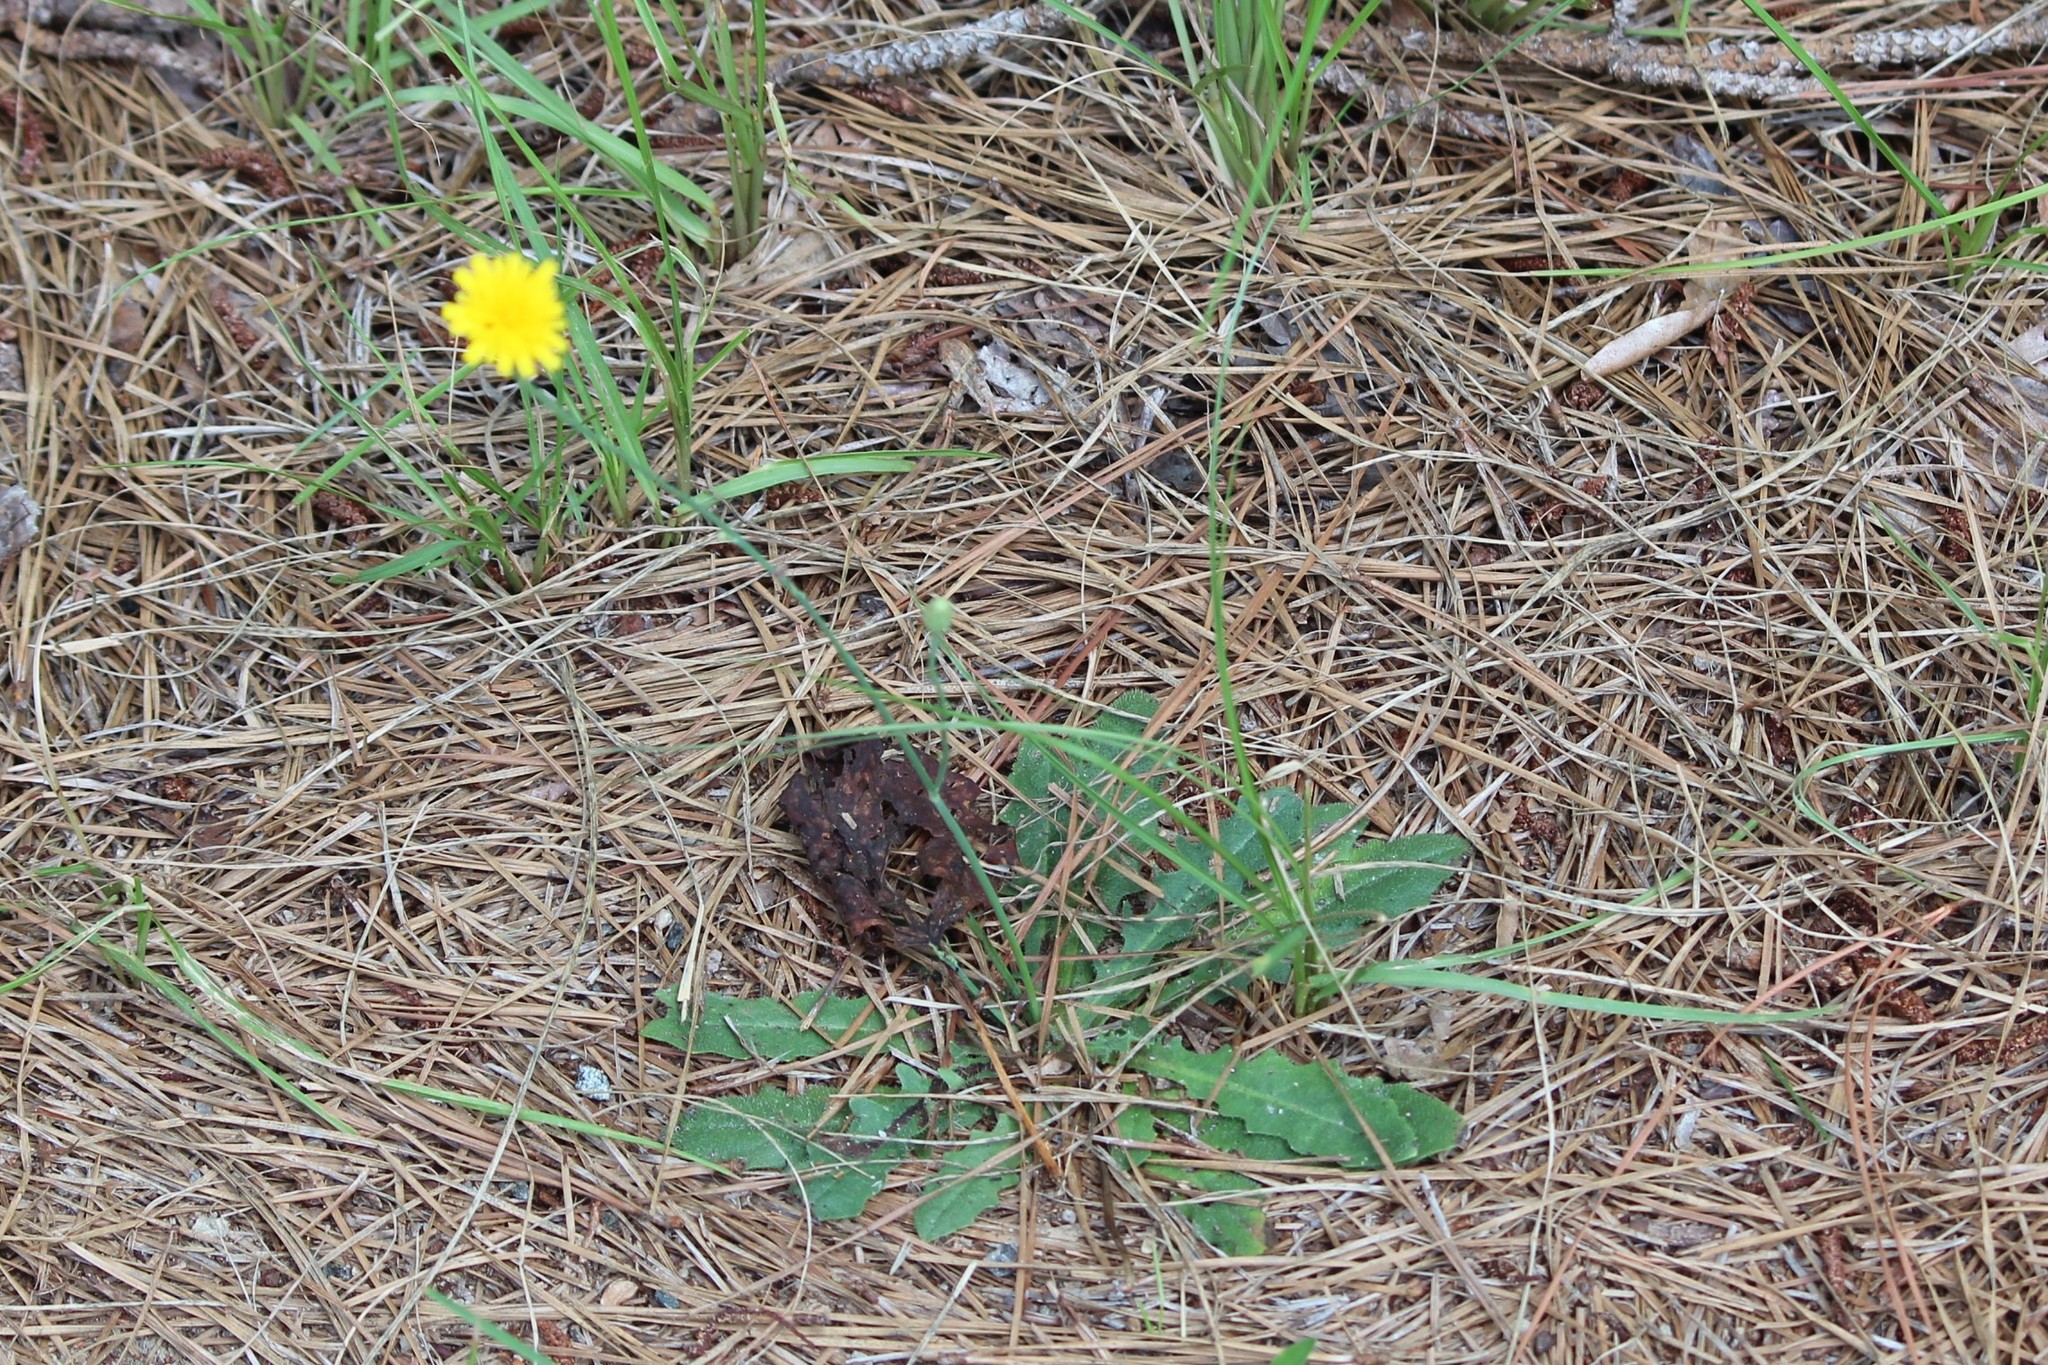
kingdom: Plantae
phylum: Tracheophyta
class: Magnoliopsida
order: Asterales
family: Asteraceae
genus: Hypochaeris
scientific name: Hypochaeris radicata
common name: Flatweed
